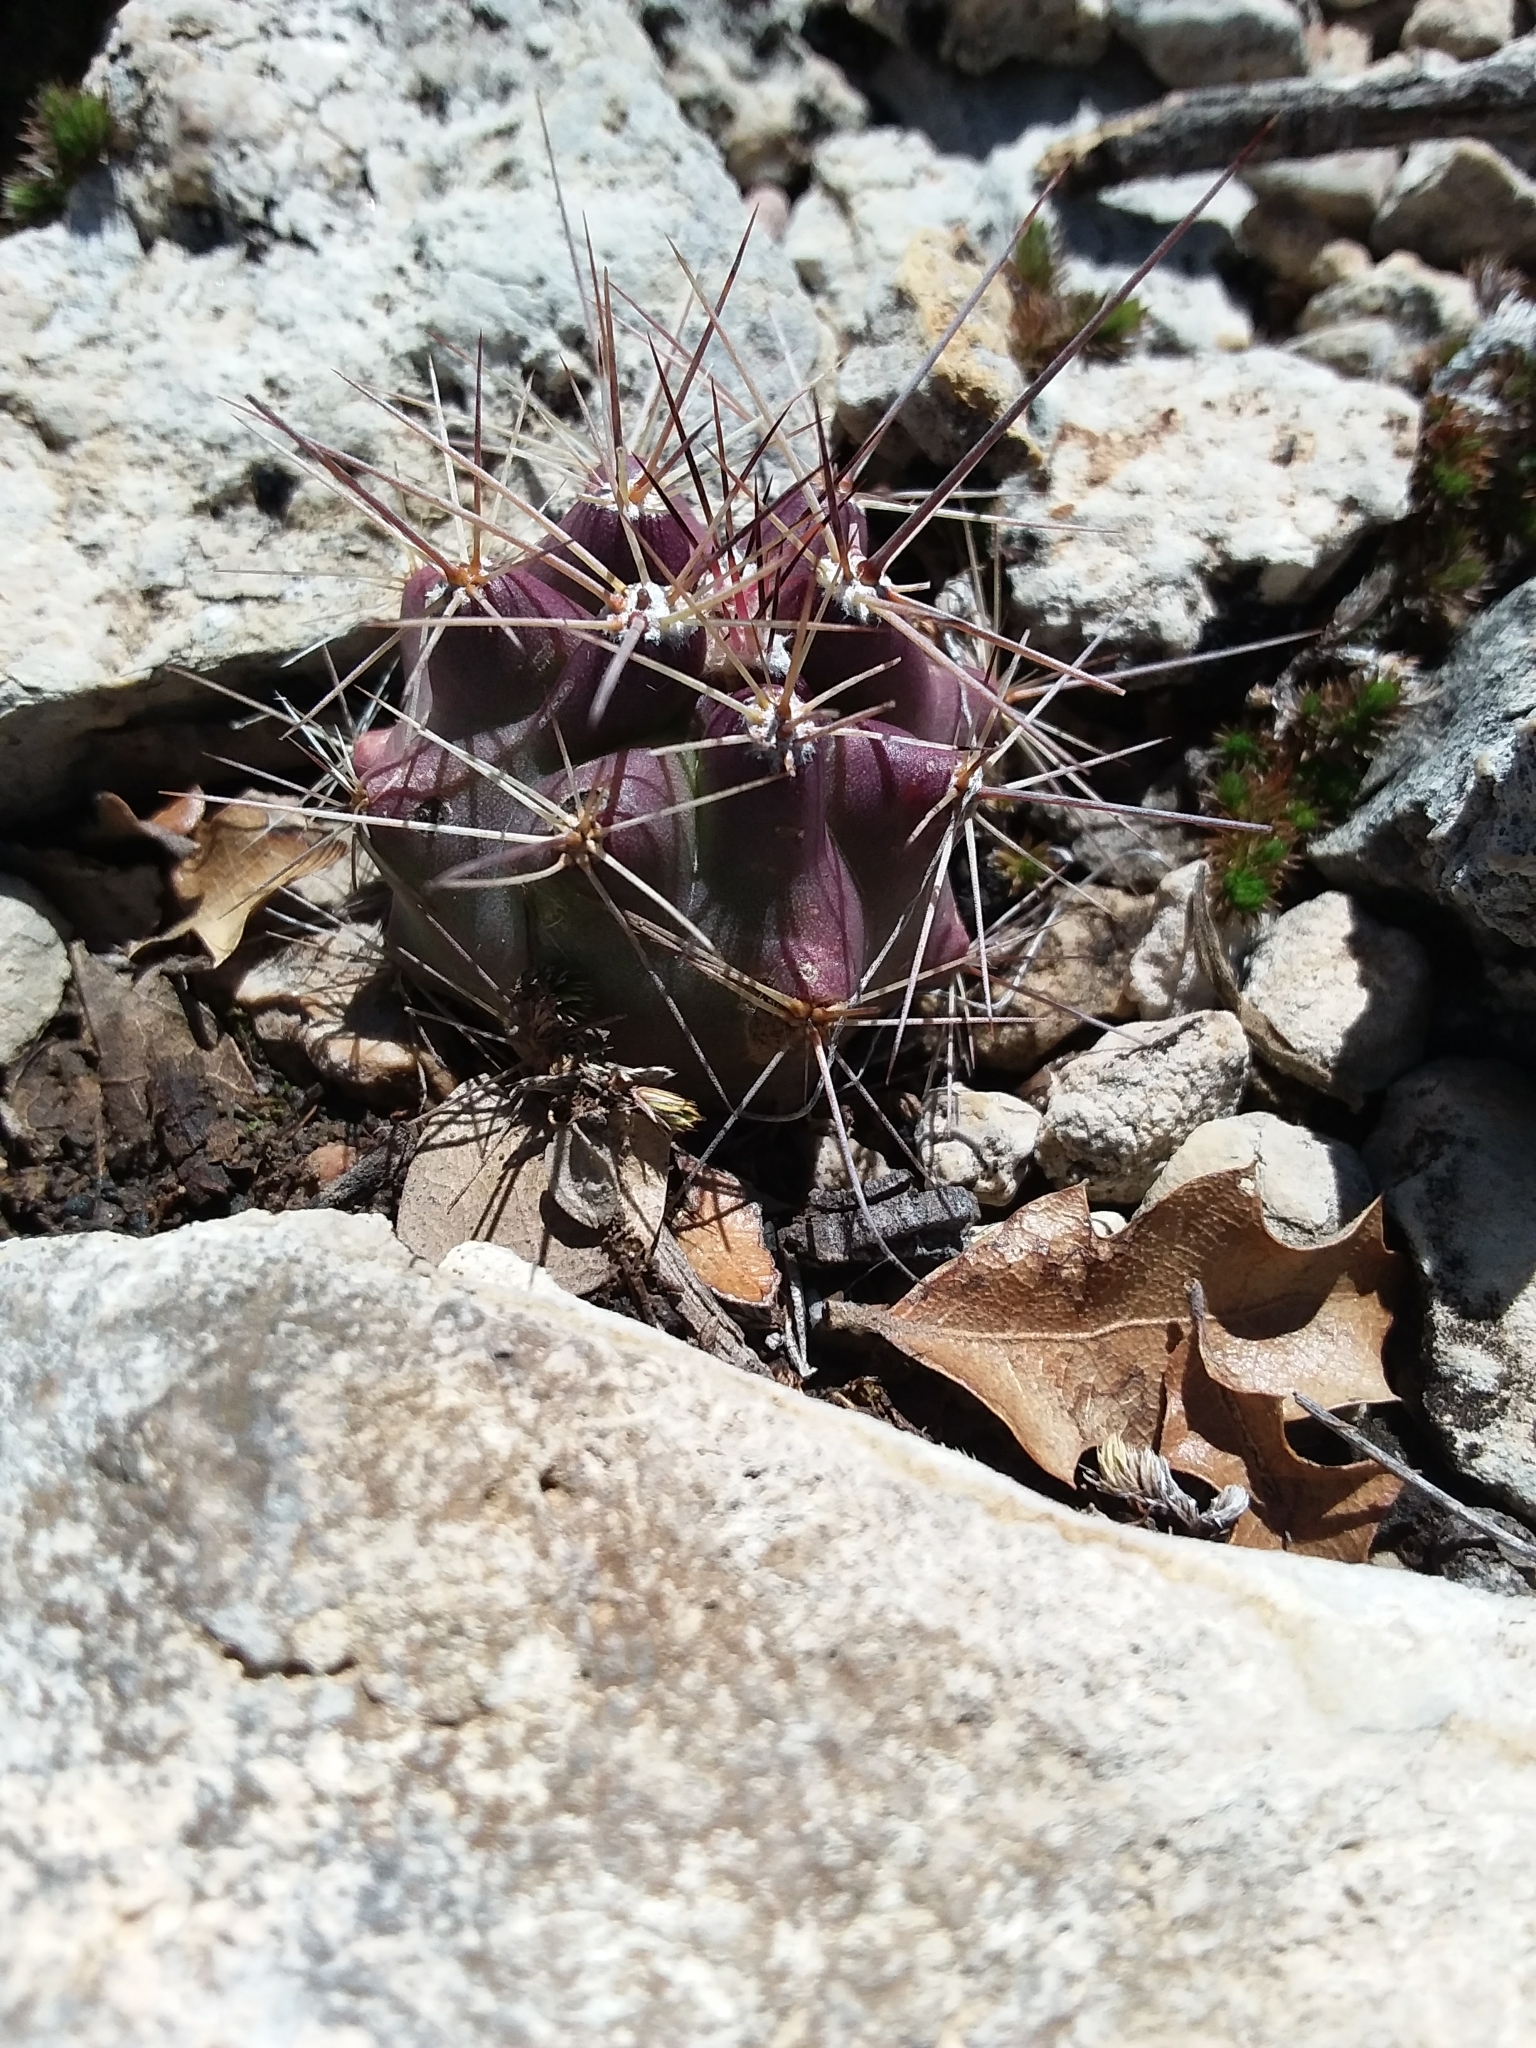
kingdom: Plantae
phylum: Tracheophyta
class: Magnoliopsida
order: Caryophyllales
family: Cactaceae
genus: Echinocereus
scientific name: Echinocereus coccineus
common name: Scarlet hedgehog cactus
